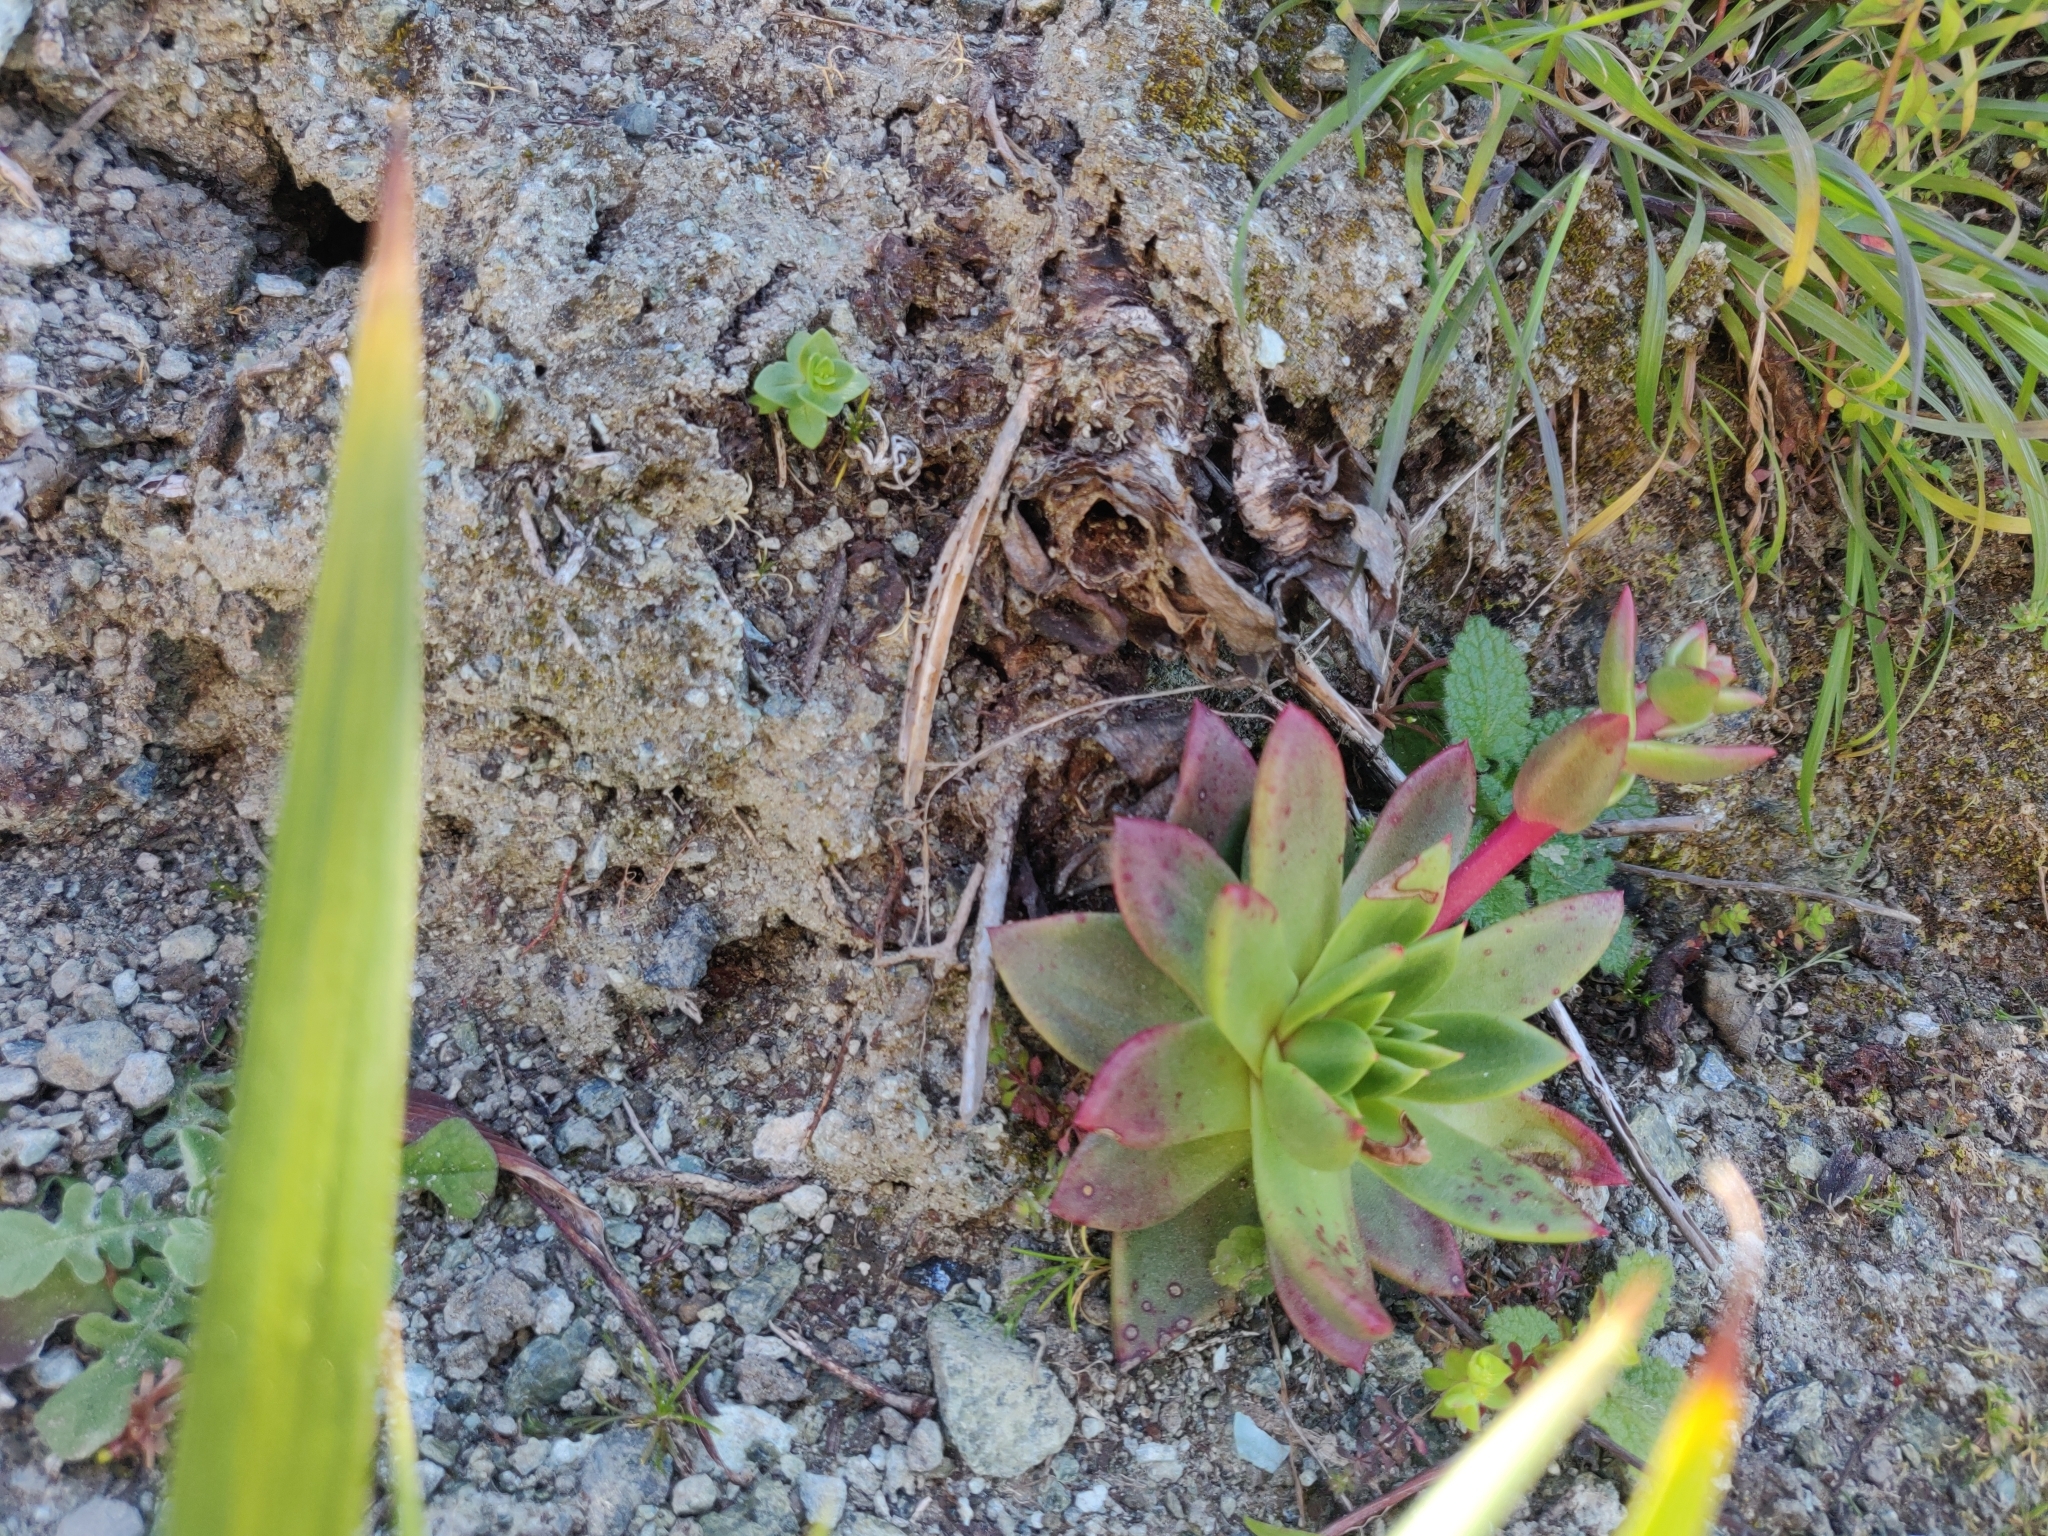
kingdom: Plantae
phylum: Tracheophyta
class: Magnoliopsida
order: Saxifragales
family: Crassulaceae
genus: Dudleya
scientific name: Dudleya farinosa
